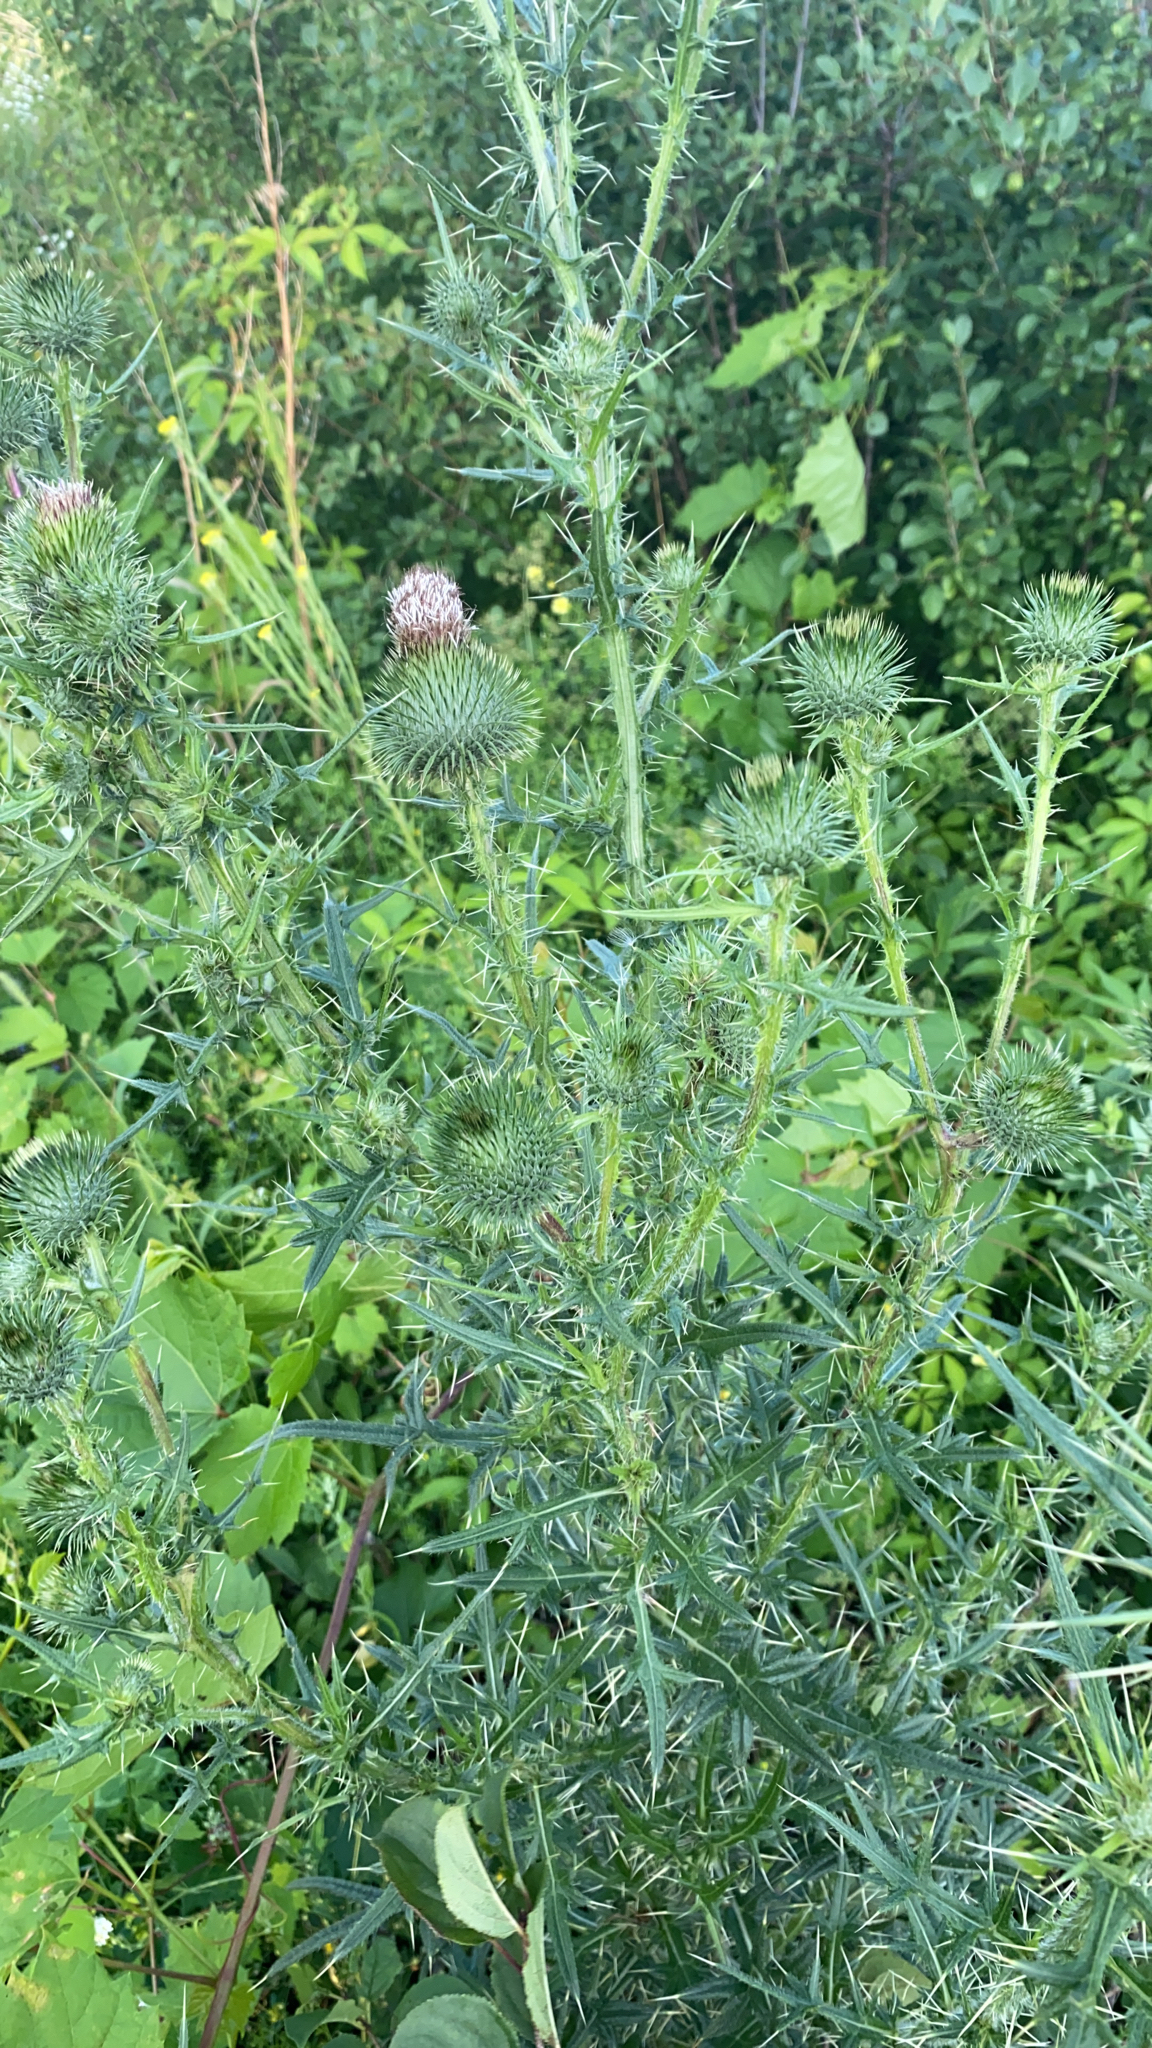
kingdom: Plantae
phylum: Tracheophyta
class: Magnoliopsida
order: Asterales
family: Asteraceae
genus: Cirsium
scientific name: Cirsium vulgare
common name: Bull thistle
